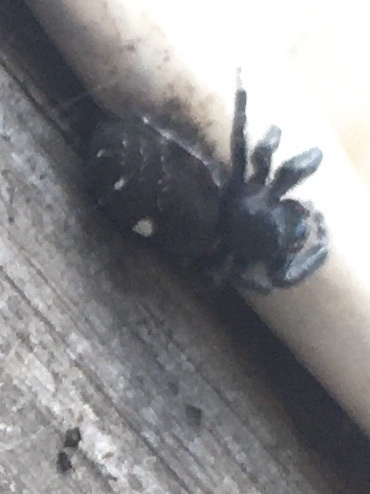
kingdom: Animalia
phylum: Arthropoda
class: Arachnida
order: Araneae
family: Salticidae
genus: Phidippus
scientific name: Phidippus audax
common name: Bold jumper
